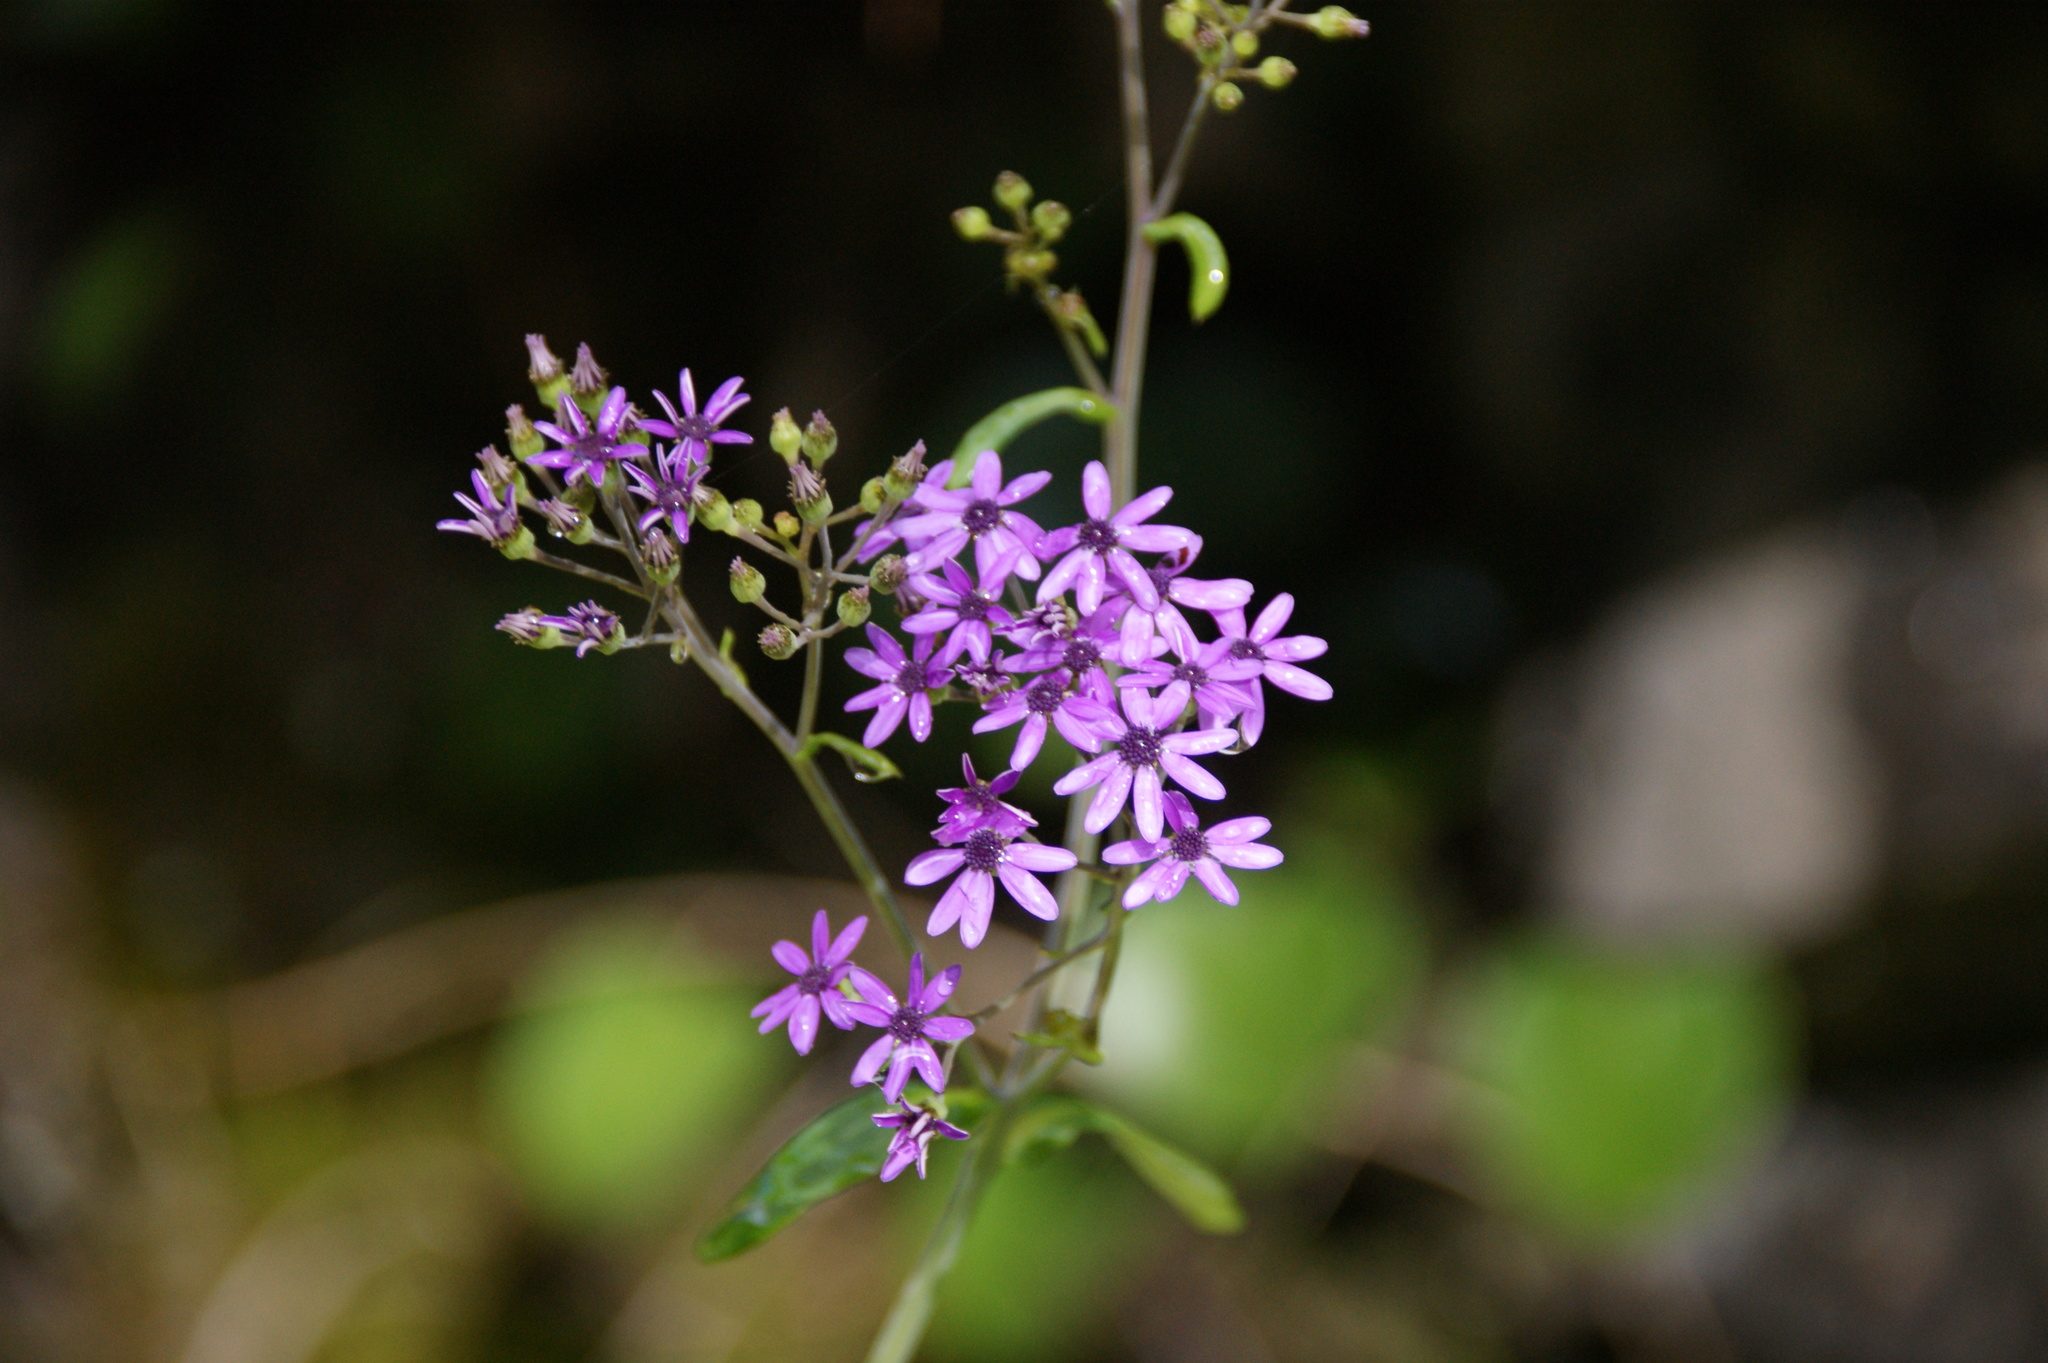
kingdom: Plantae
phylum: Tracheophyta
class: Magnoliopsida
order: Asterales
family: Asteraceae
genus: Pericallis
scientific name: Pericallis papyracea
